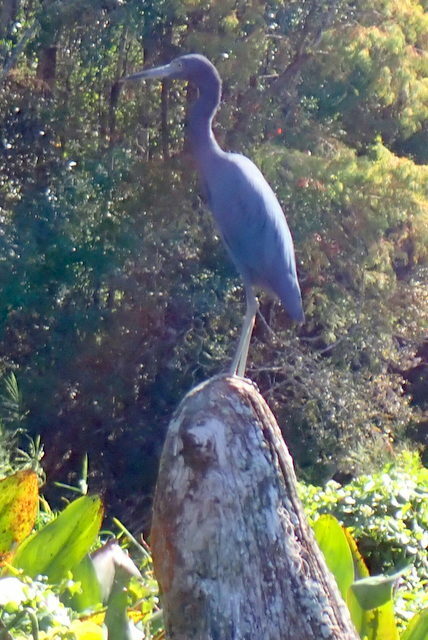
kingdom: Animalia
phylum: Chordata
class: Aves
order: Pelecaniformes
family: Ardeidae
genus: Egretta
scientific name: Egretta caerulea
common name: Little blue heron
